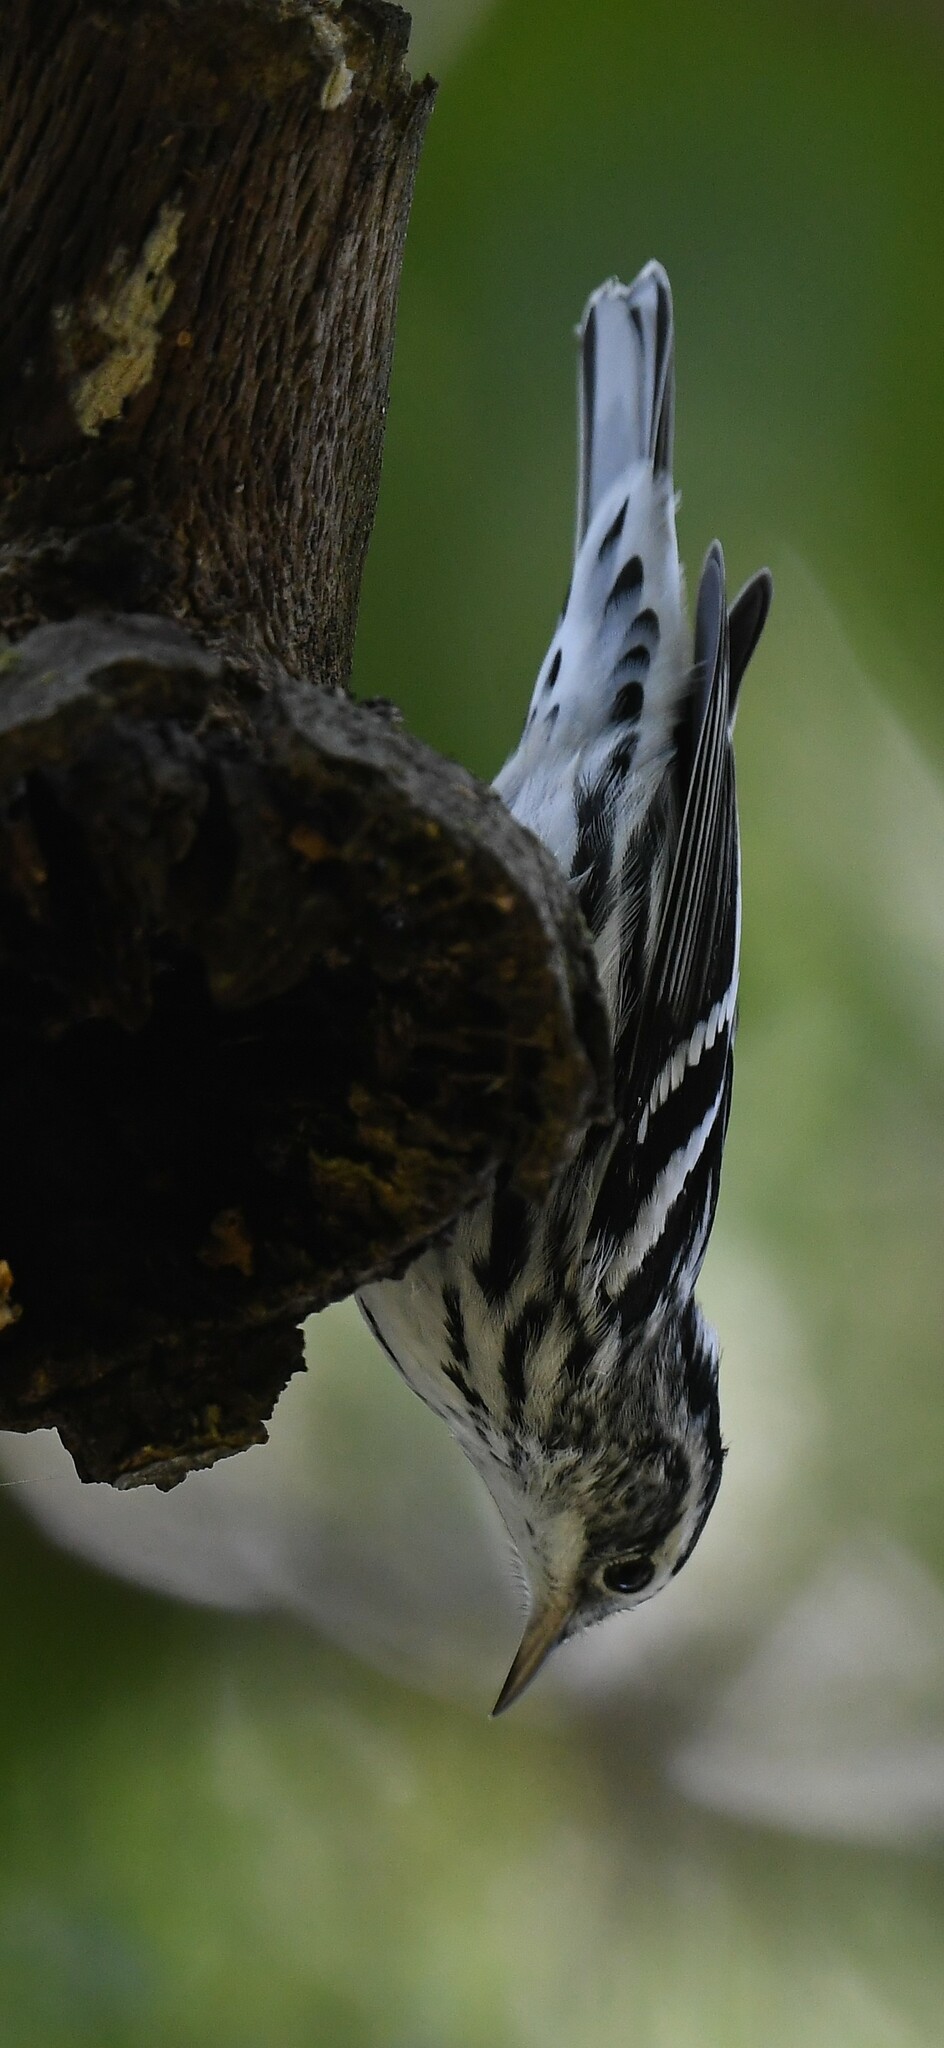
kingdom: Animalia
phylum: Chordata
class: Aves
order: Passeriformes
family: Parulidae
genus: Mniotilta
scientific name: Mniotilta varia
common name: Black-and-white warbler
